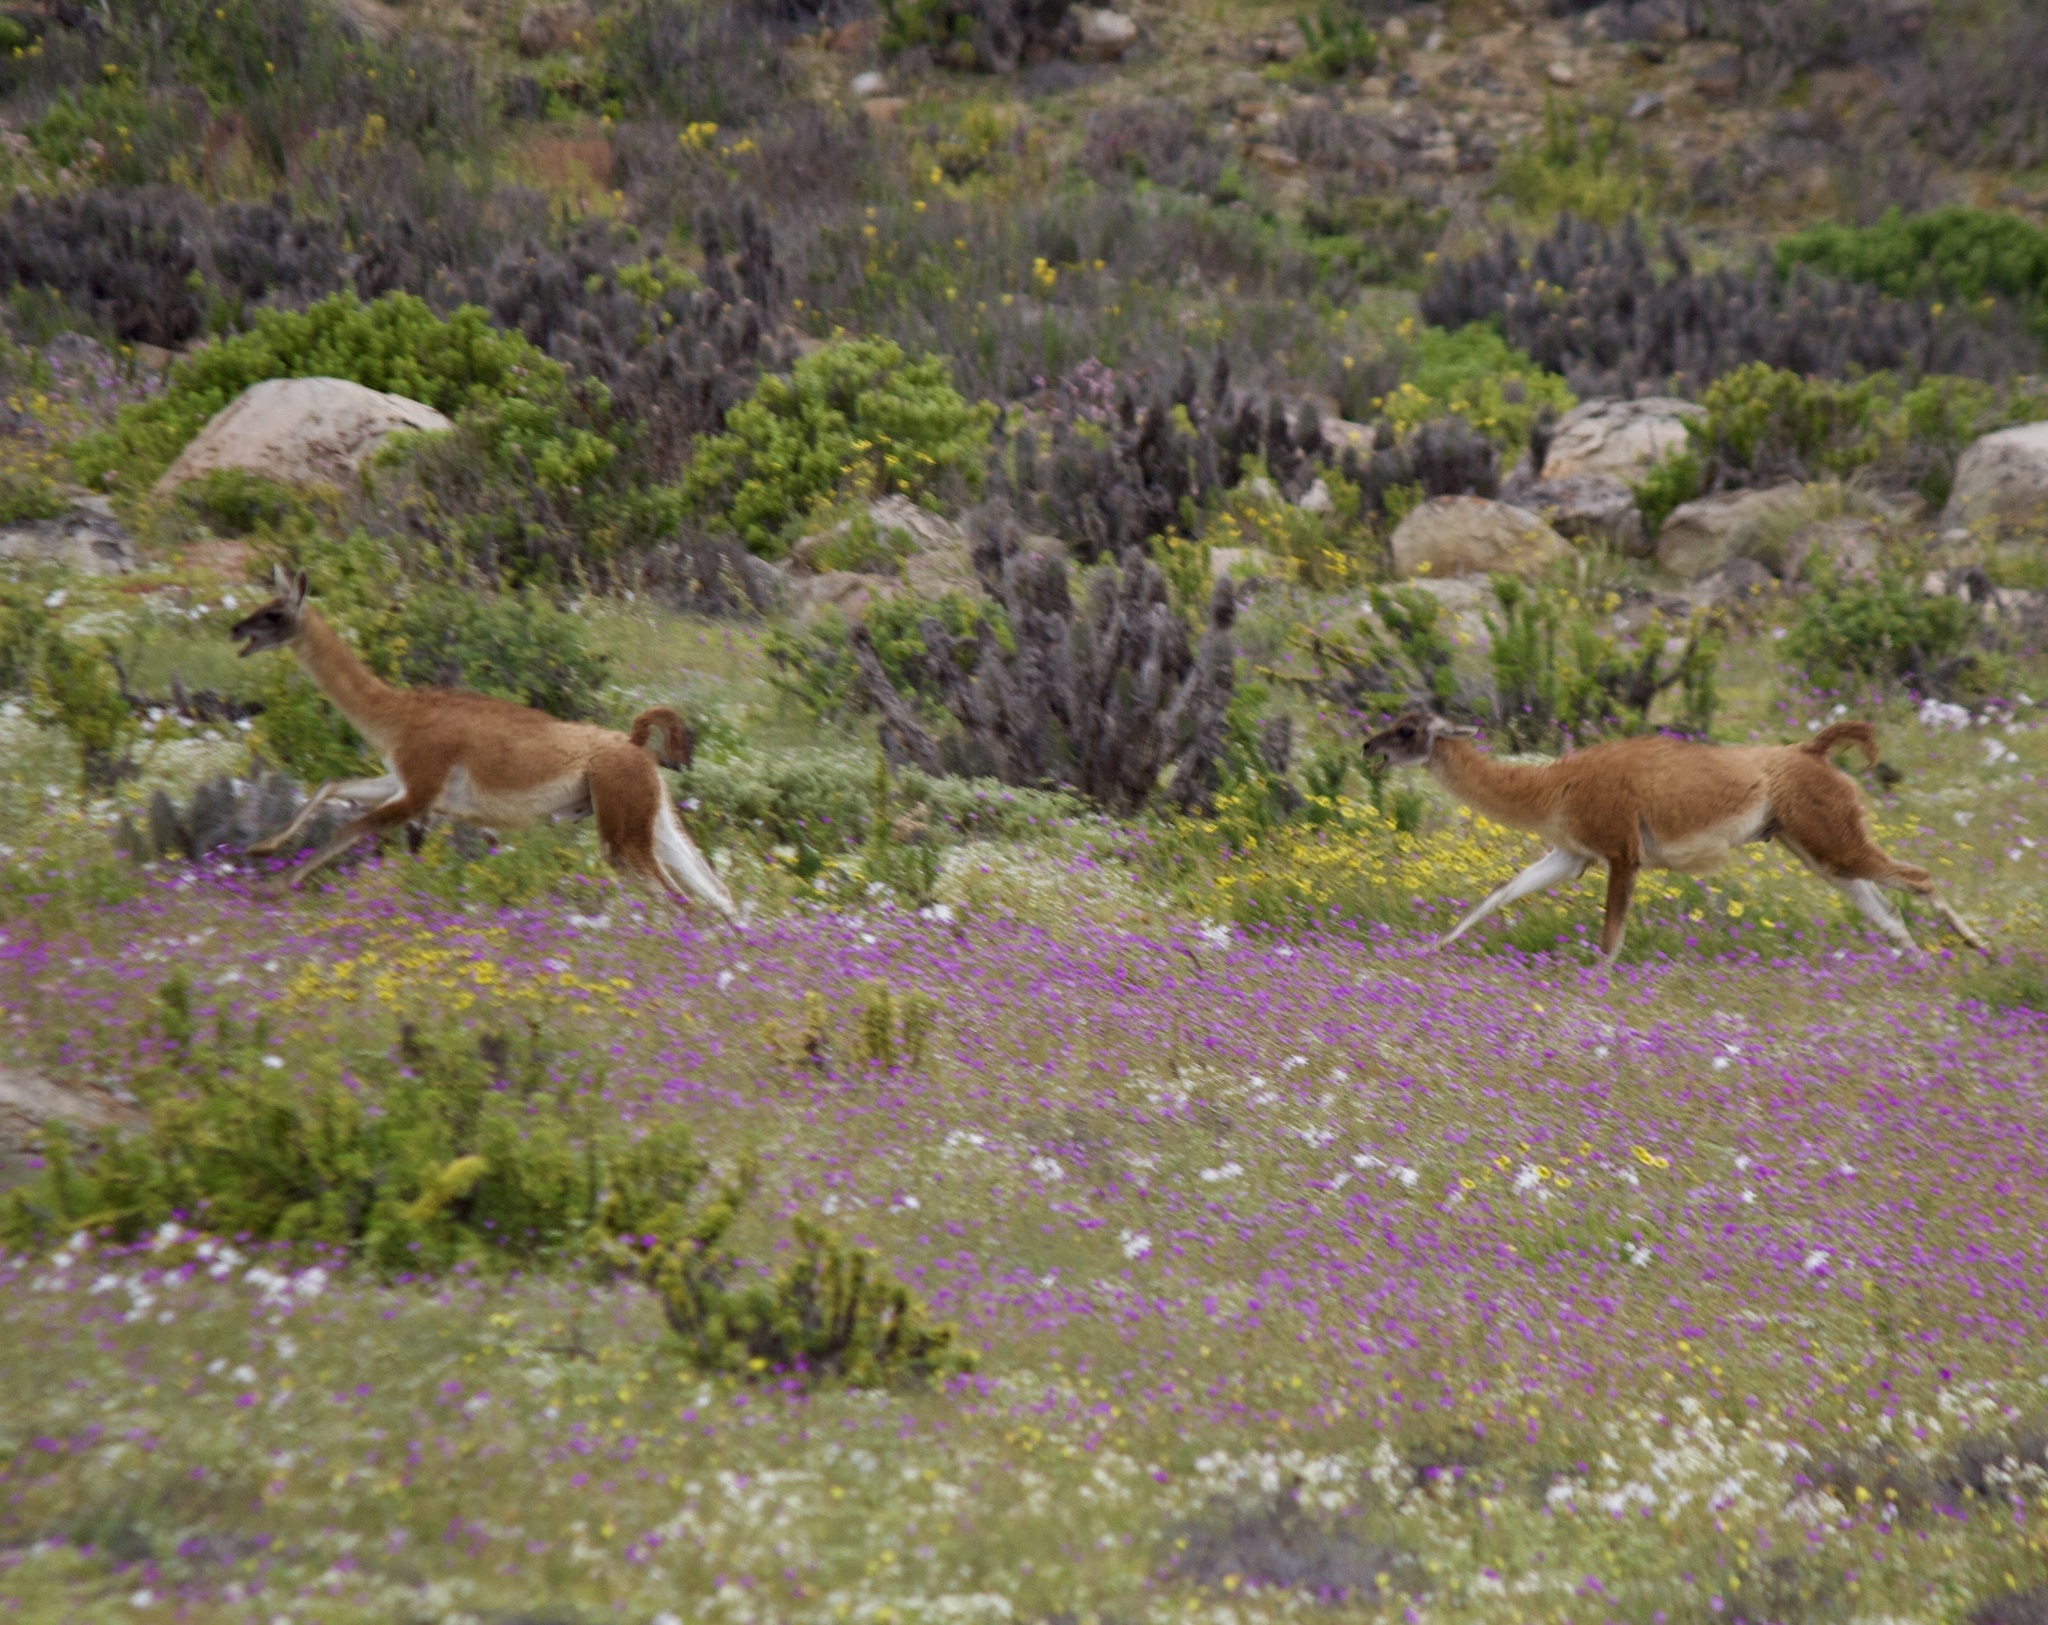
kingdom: Animalia
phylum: Chordata
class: Mammalia
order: Artiodactyla
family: Camelidae
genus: Lama
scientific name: Lama glama
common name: Llama
